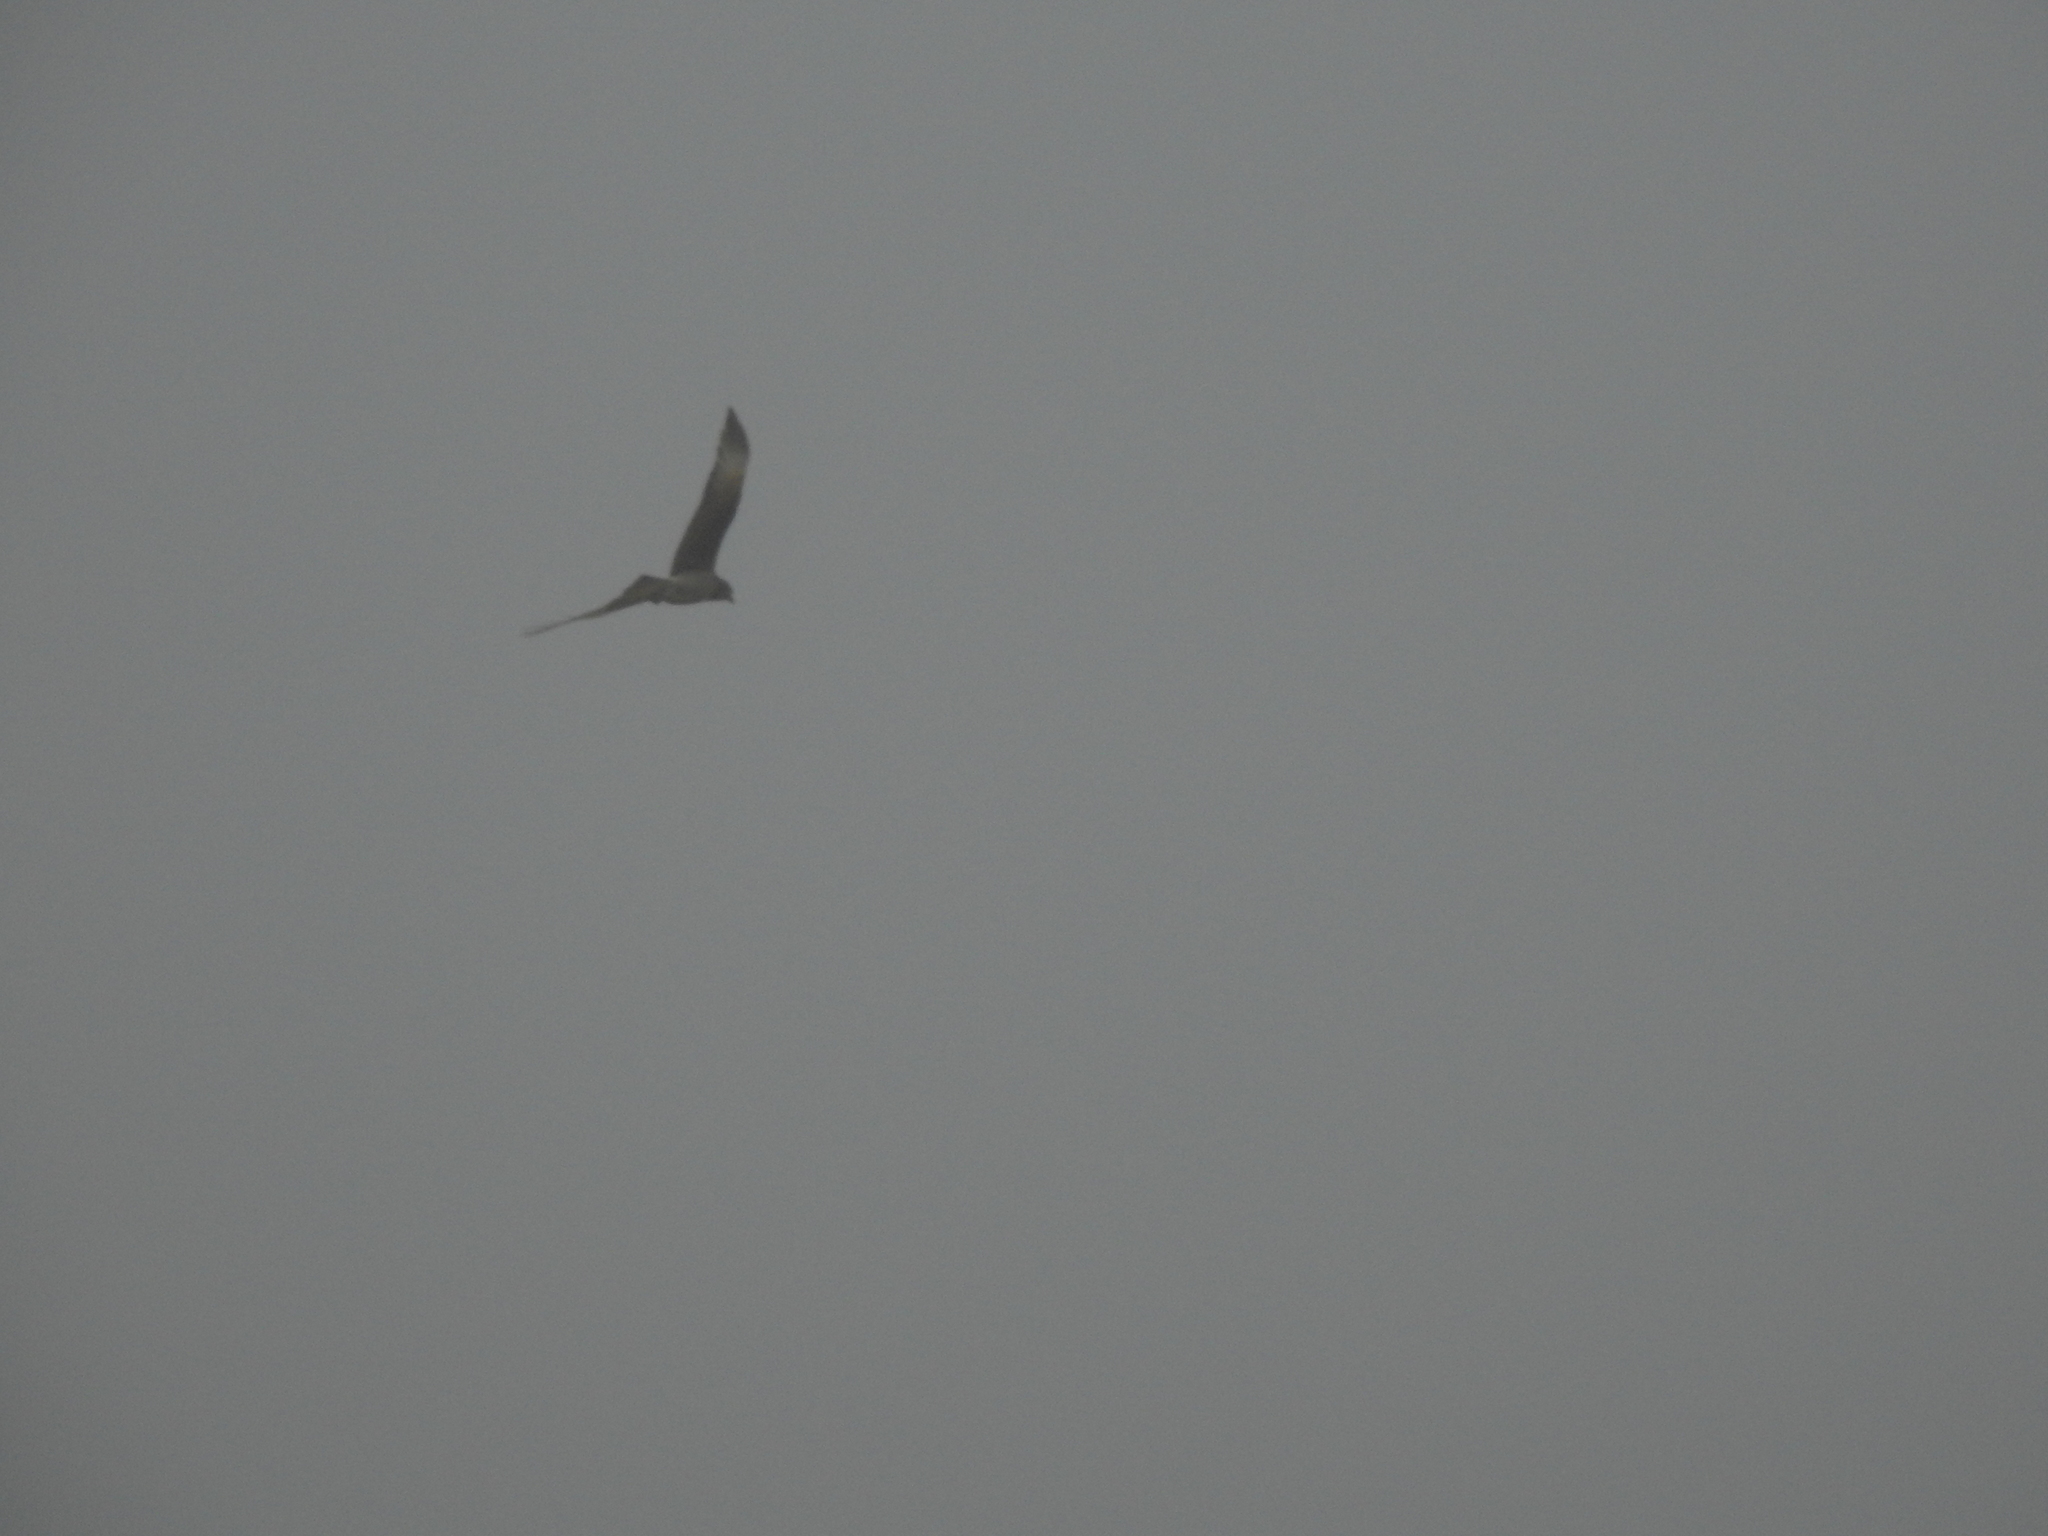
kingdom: Animalia
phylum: Chordata
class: Aves
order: Falconiformes
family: Falconidae
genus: Daptrius
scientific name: Daptrius
